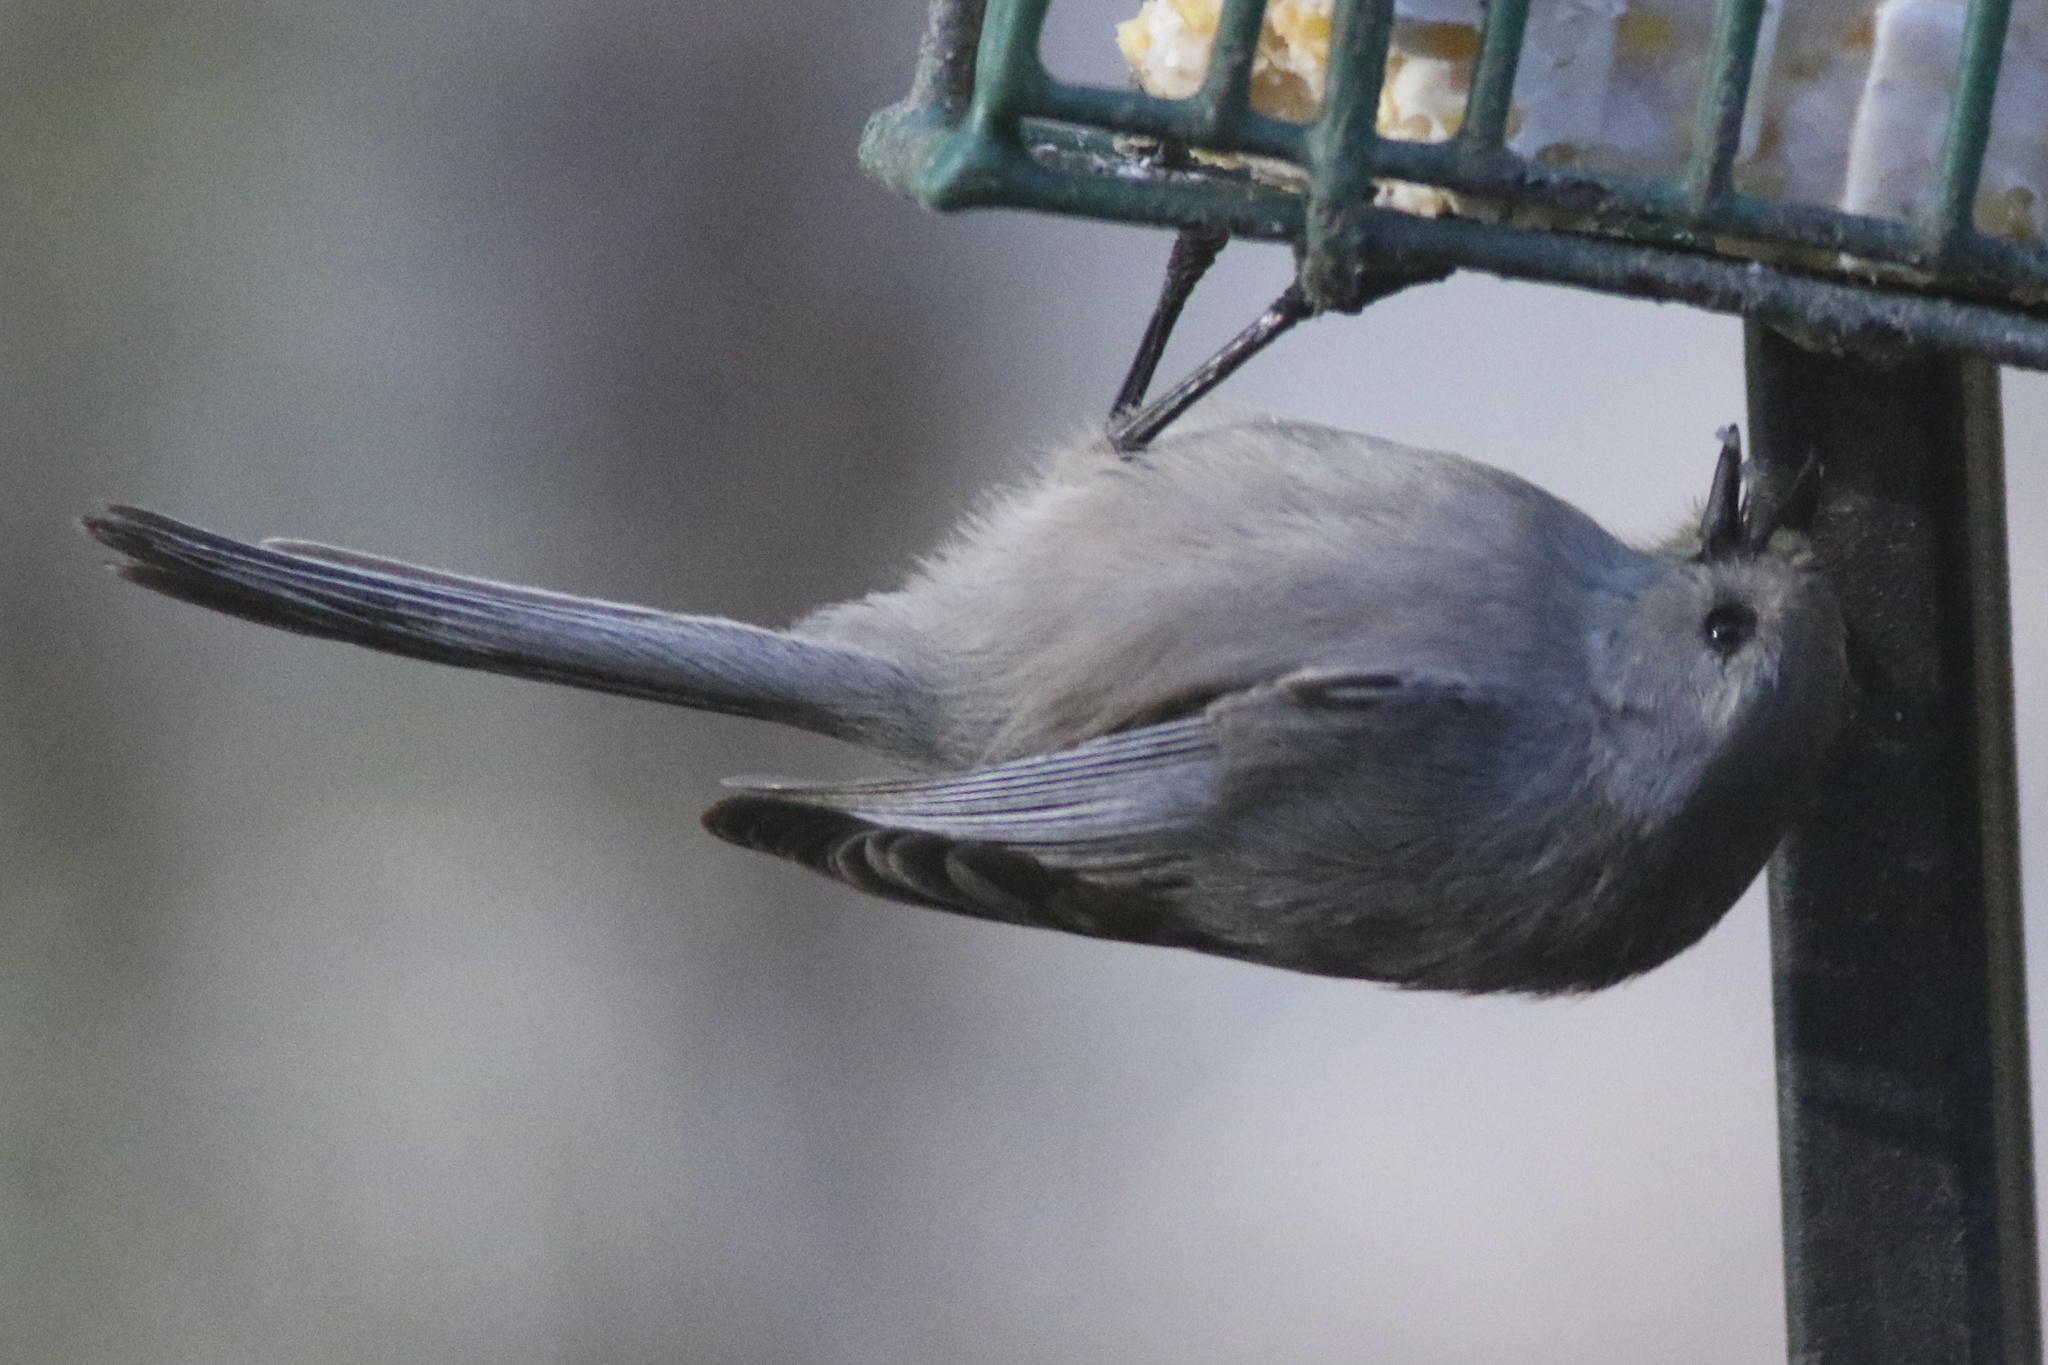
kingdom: Animalia
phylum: Chordata
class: Aves
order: Passeriformes
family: Aegithalidae
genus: Psaltriparus
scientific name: Psaltriparus minimus
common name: American bushtit
